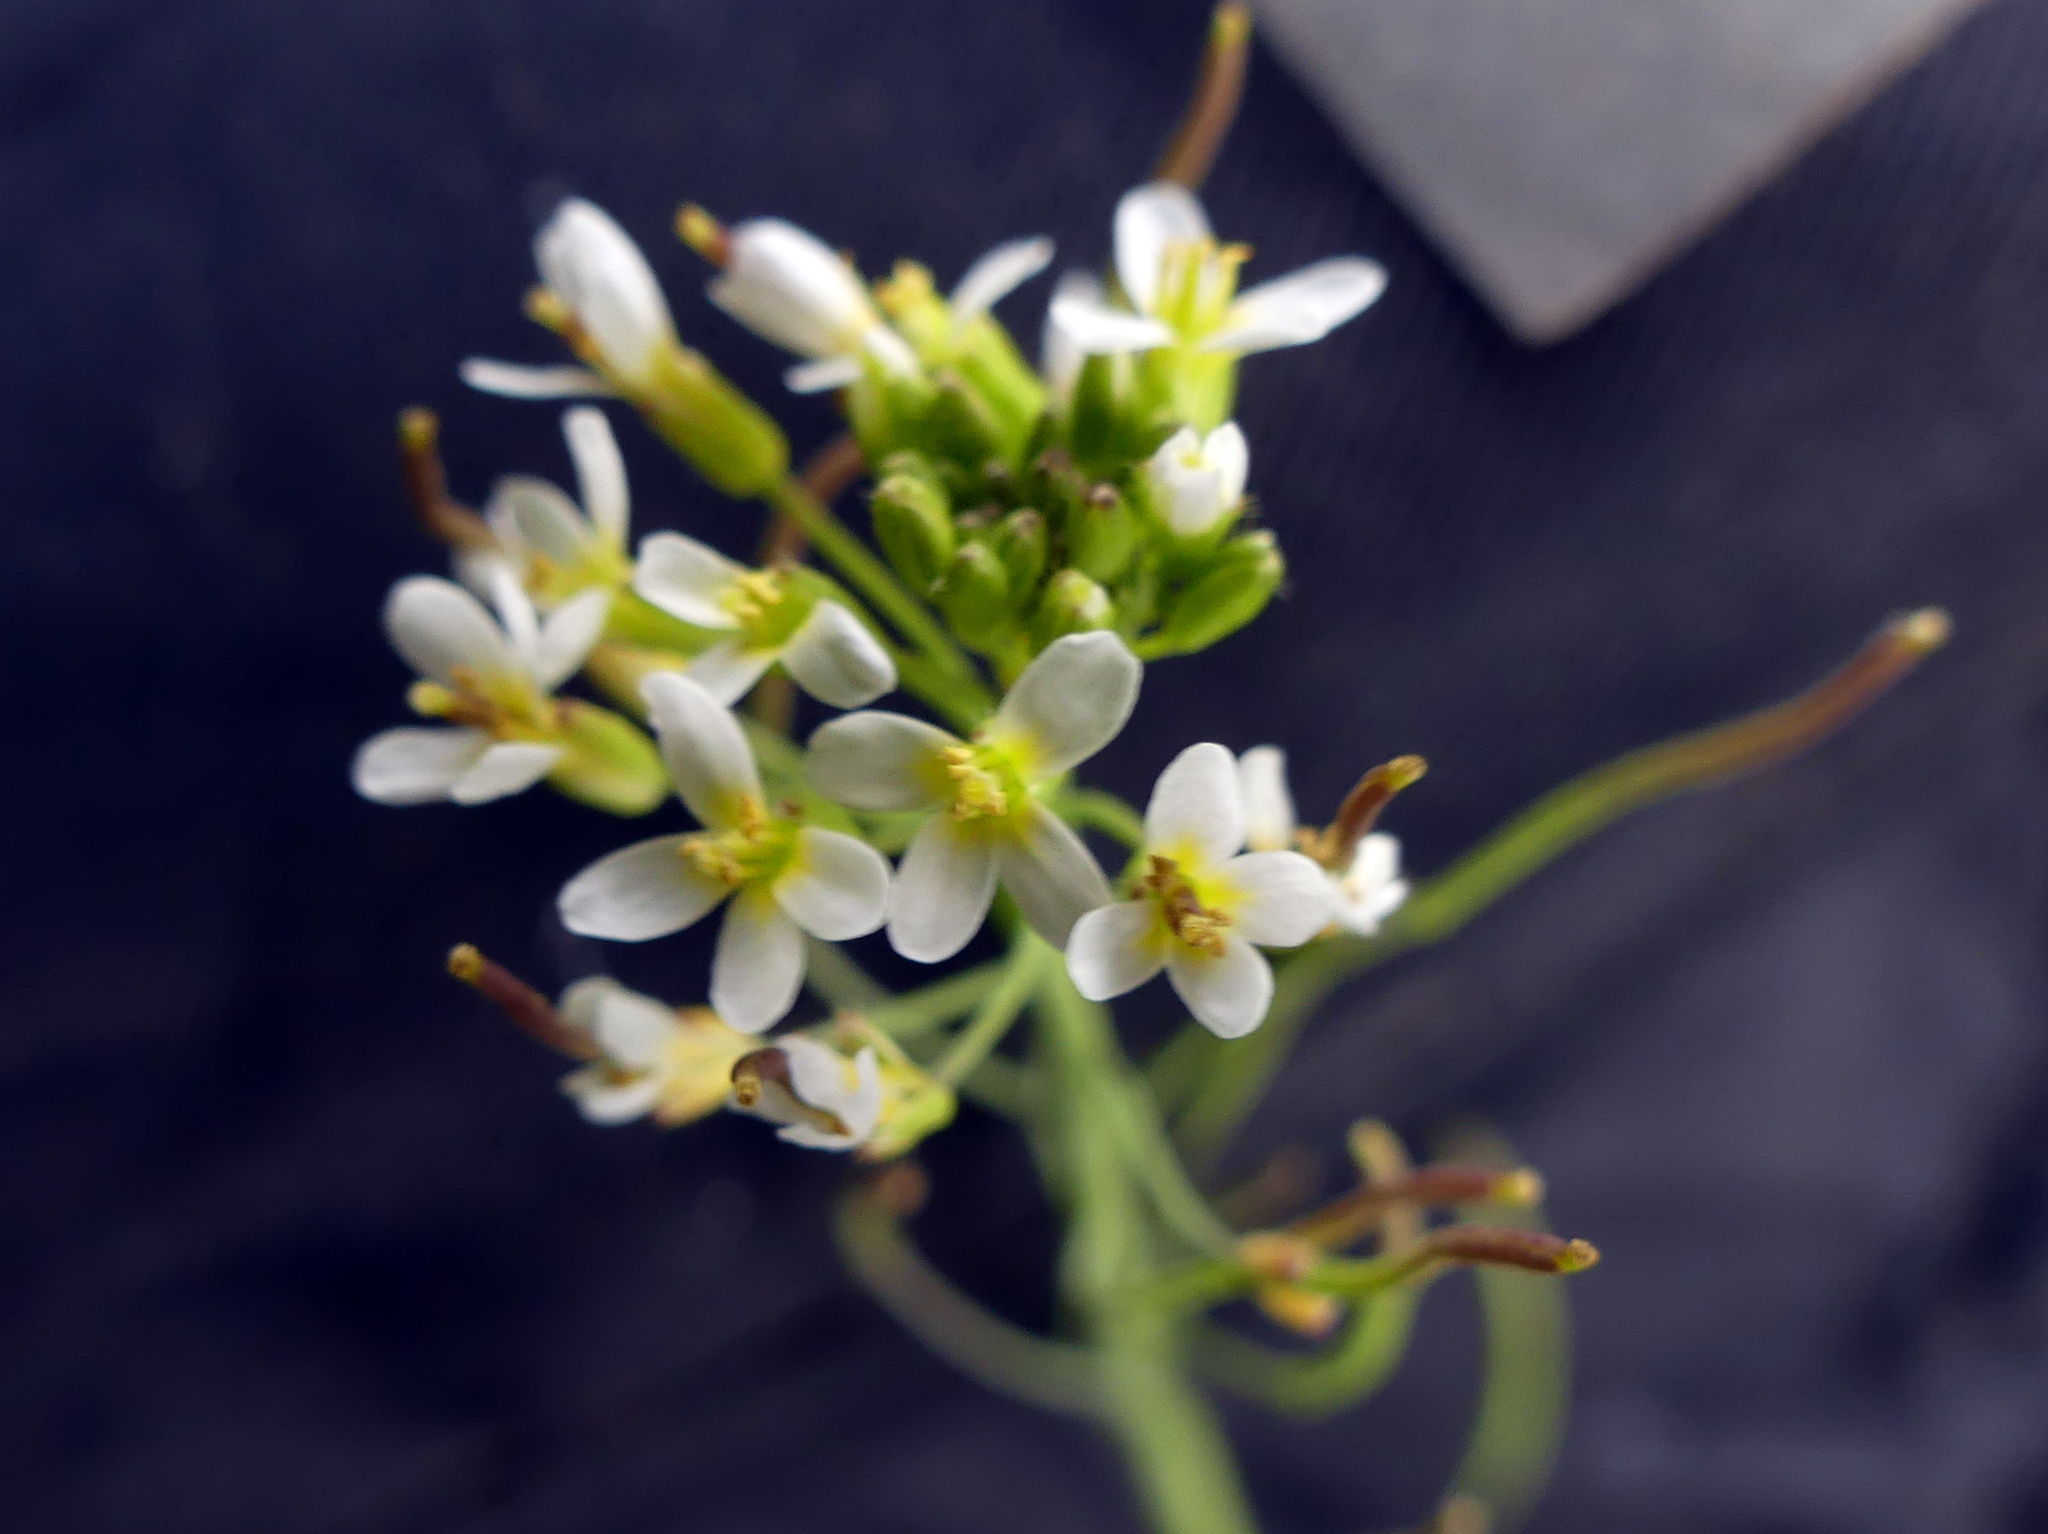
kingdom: Plantae
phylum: Tracheophyta
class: Magnoliopsida
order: Brassicales
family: Brassicaceae
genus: Arabidopsis
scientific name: Arabidopsis thaliana
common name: Thale cress
